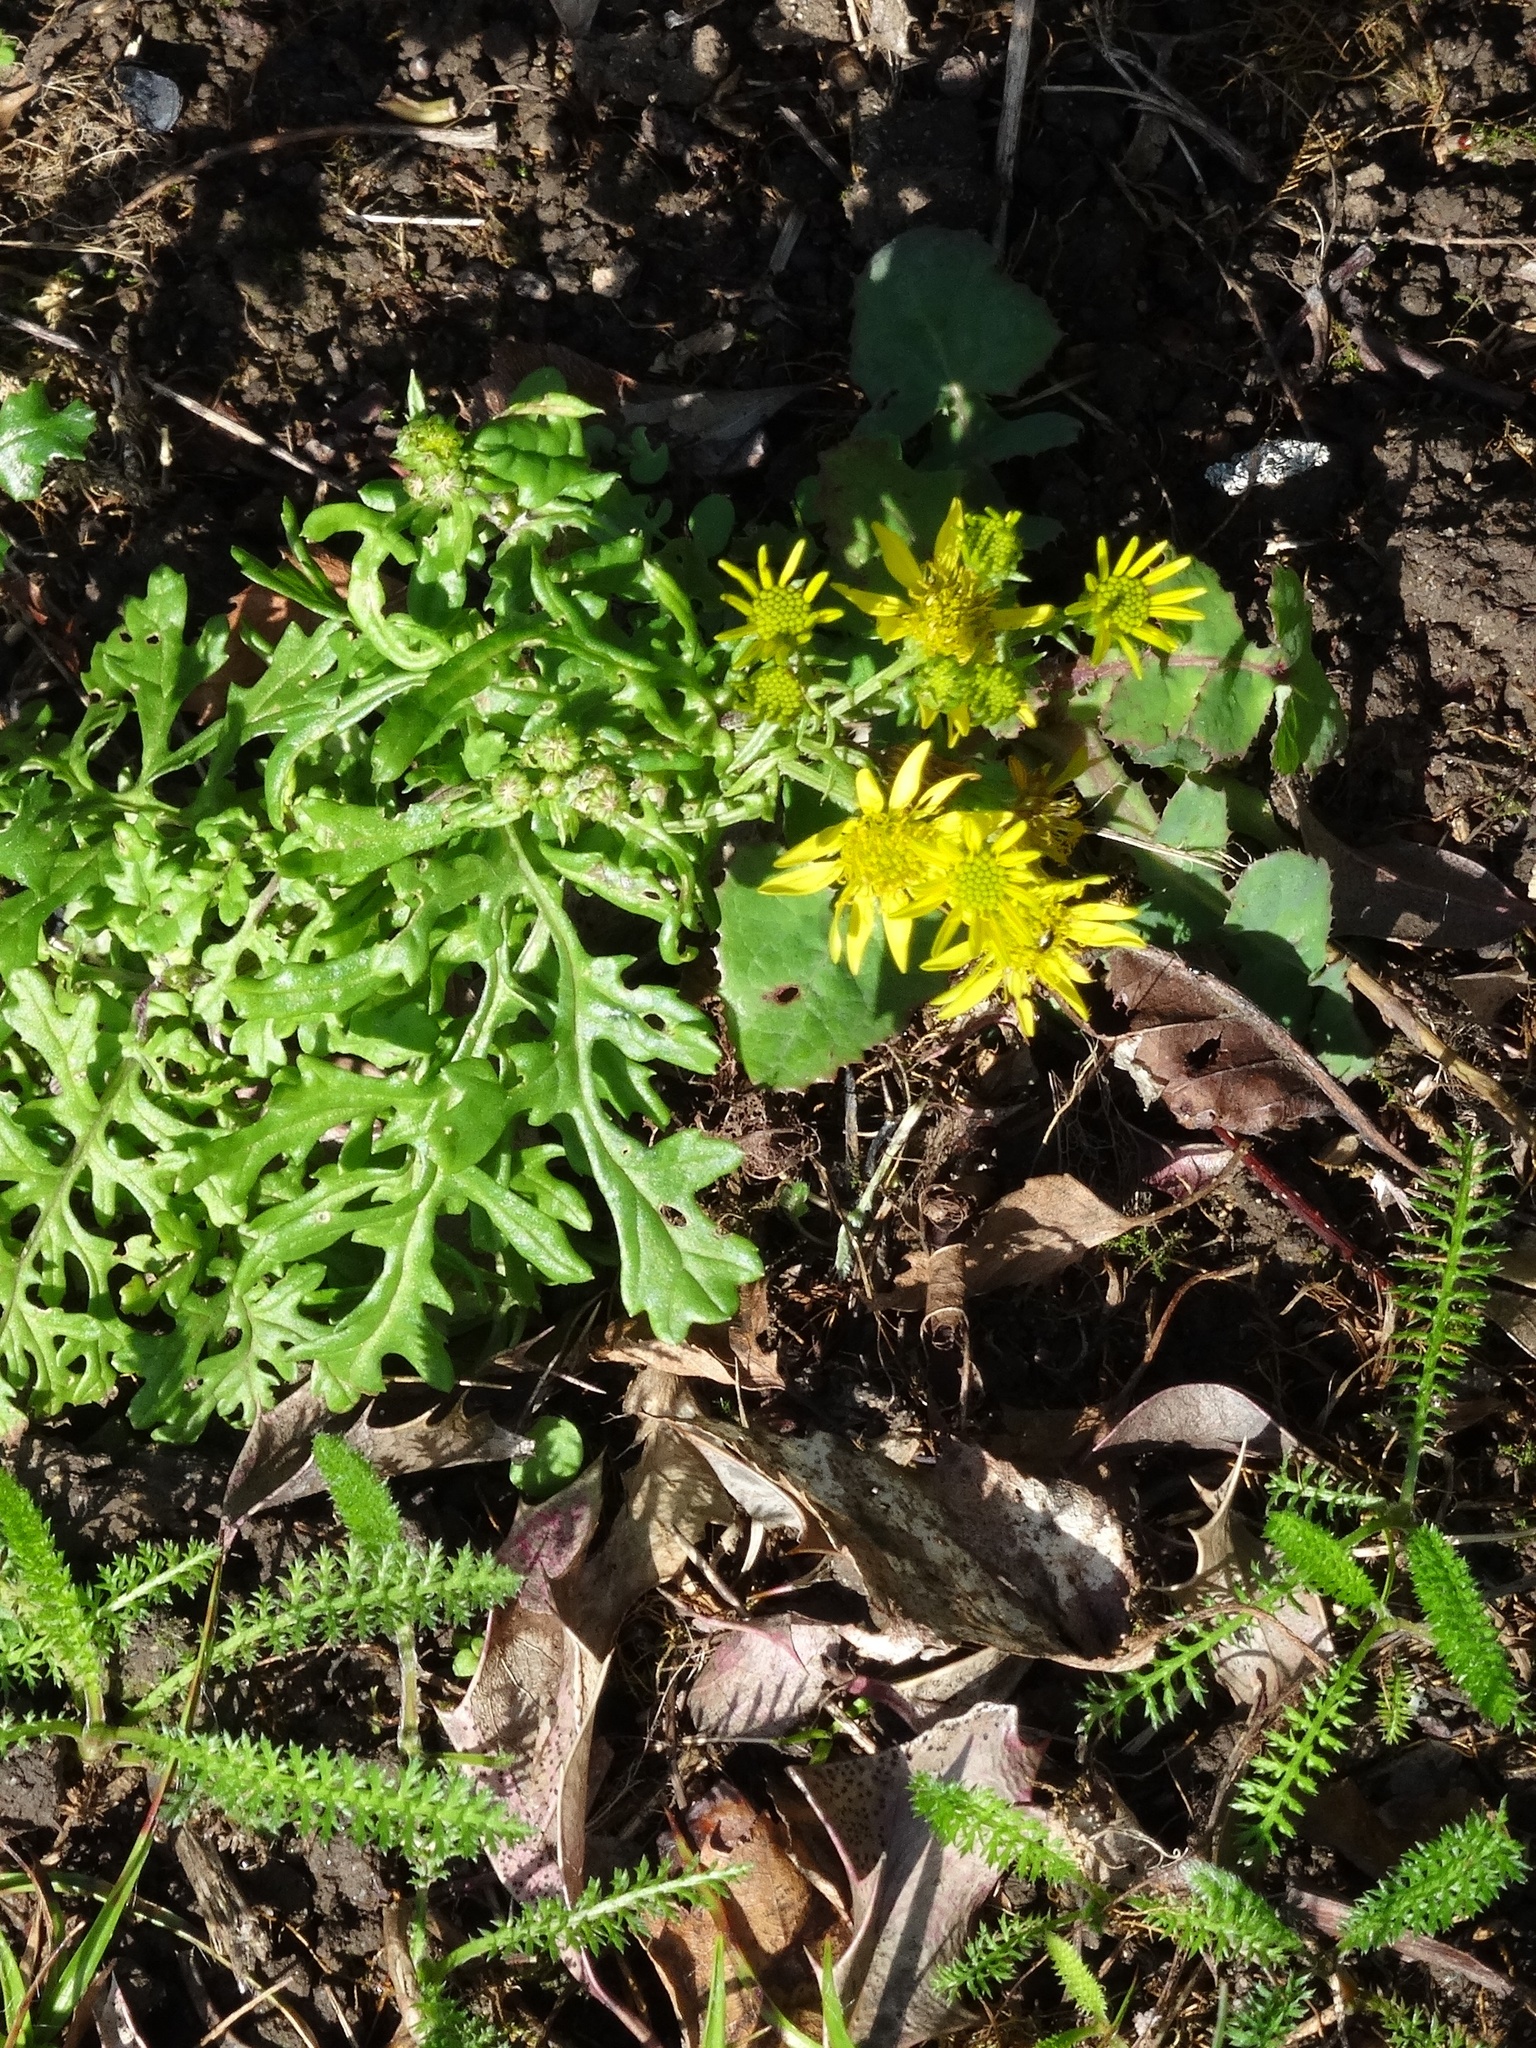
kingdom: Plantae
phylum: Tracheophyta
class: Magnoliopsida
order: Asterales
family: Asteraceae
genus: Senecio
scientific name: Senecio squalidus
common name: Oxford ragwort
